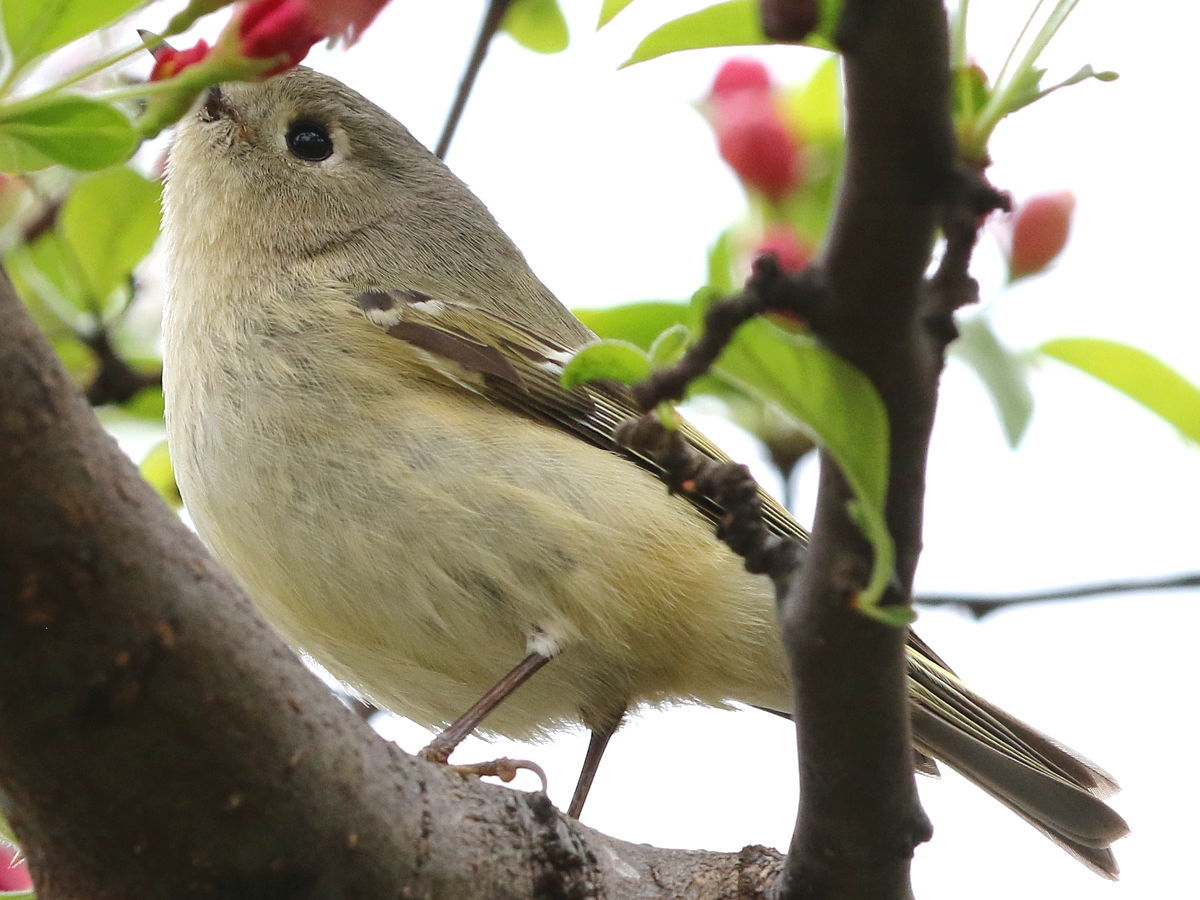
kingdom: Animalia
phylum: Chordata
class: Aves
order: Passeriformes
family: Regulidae
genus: Regulus
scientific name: Regulus calendula
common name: Ruby-crowned kinglet
